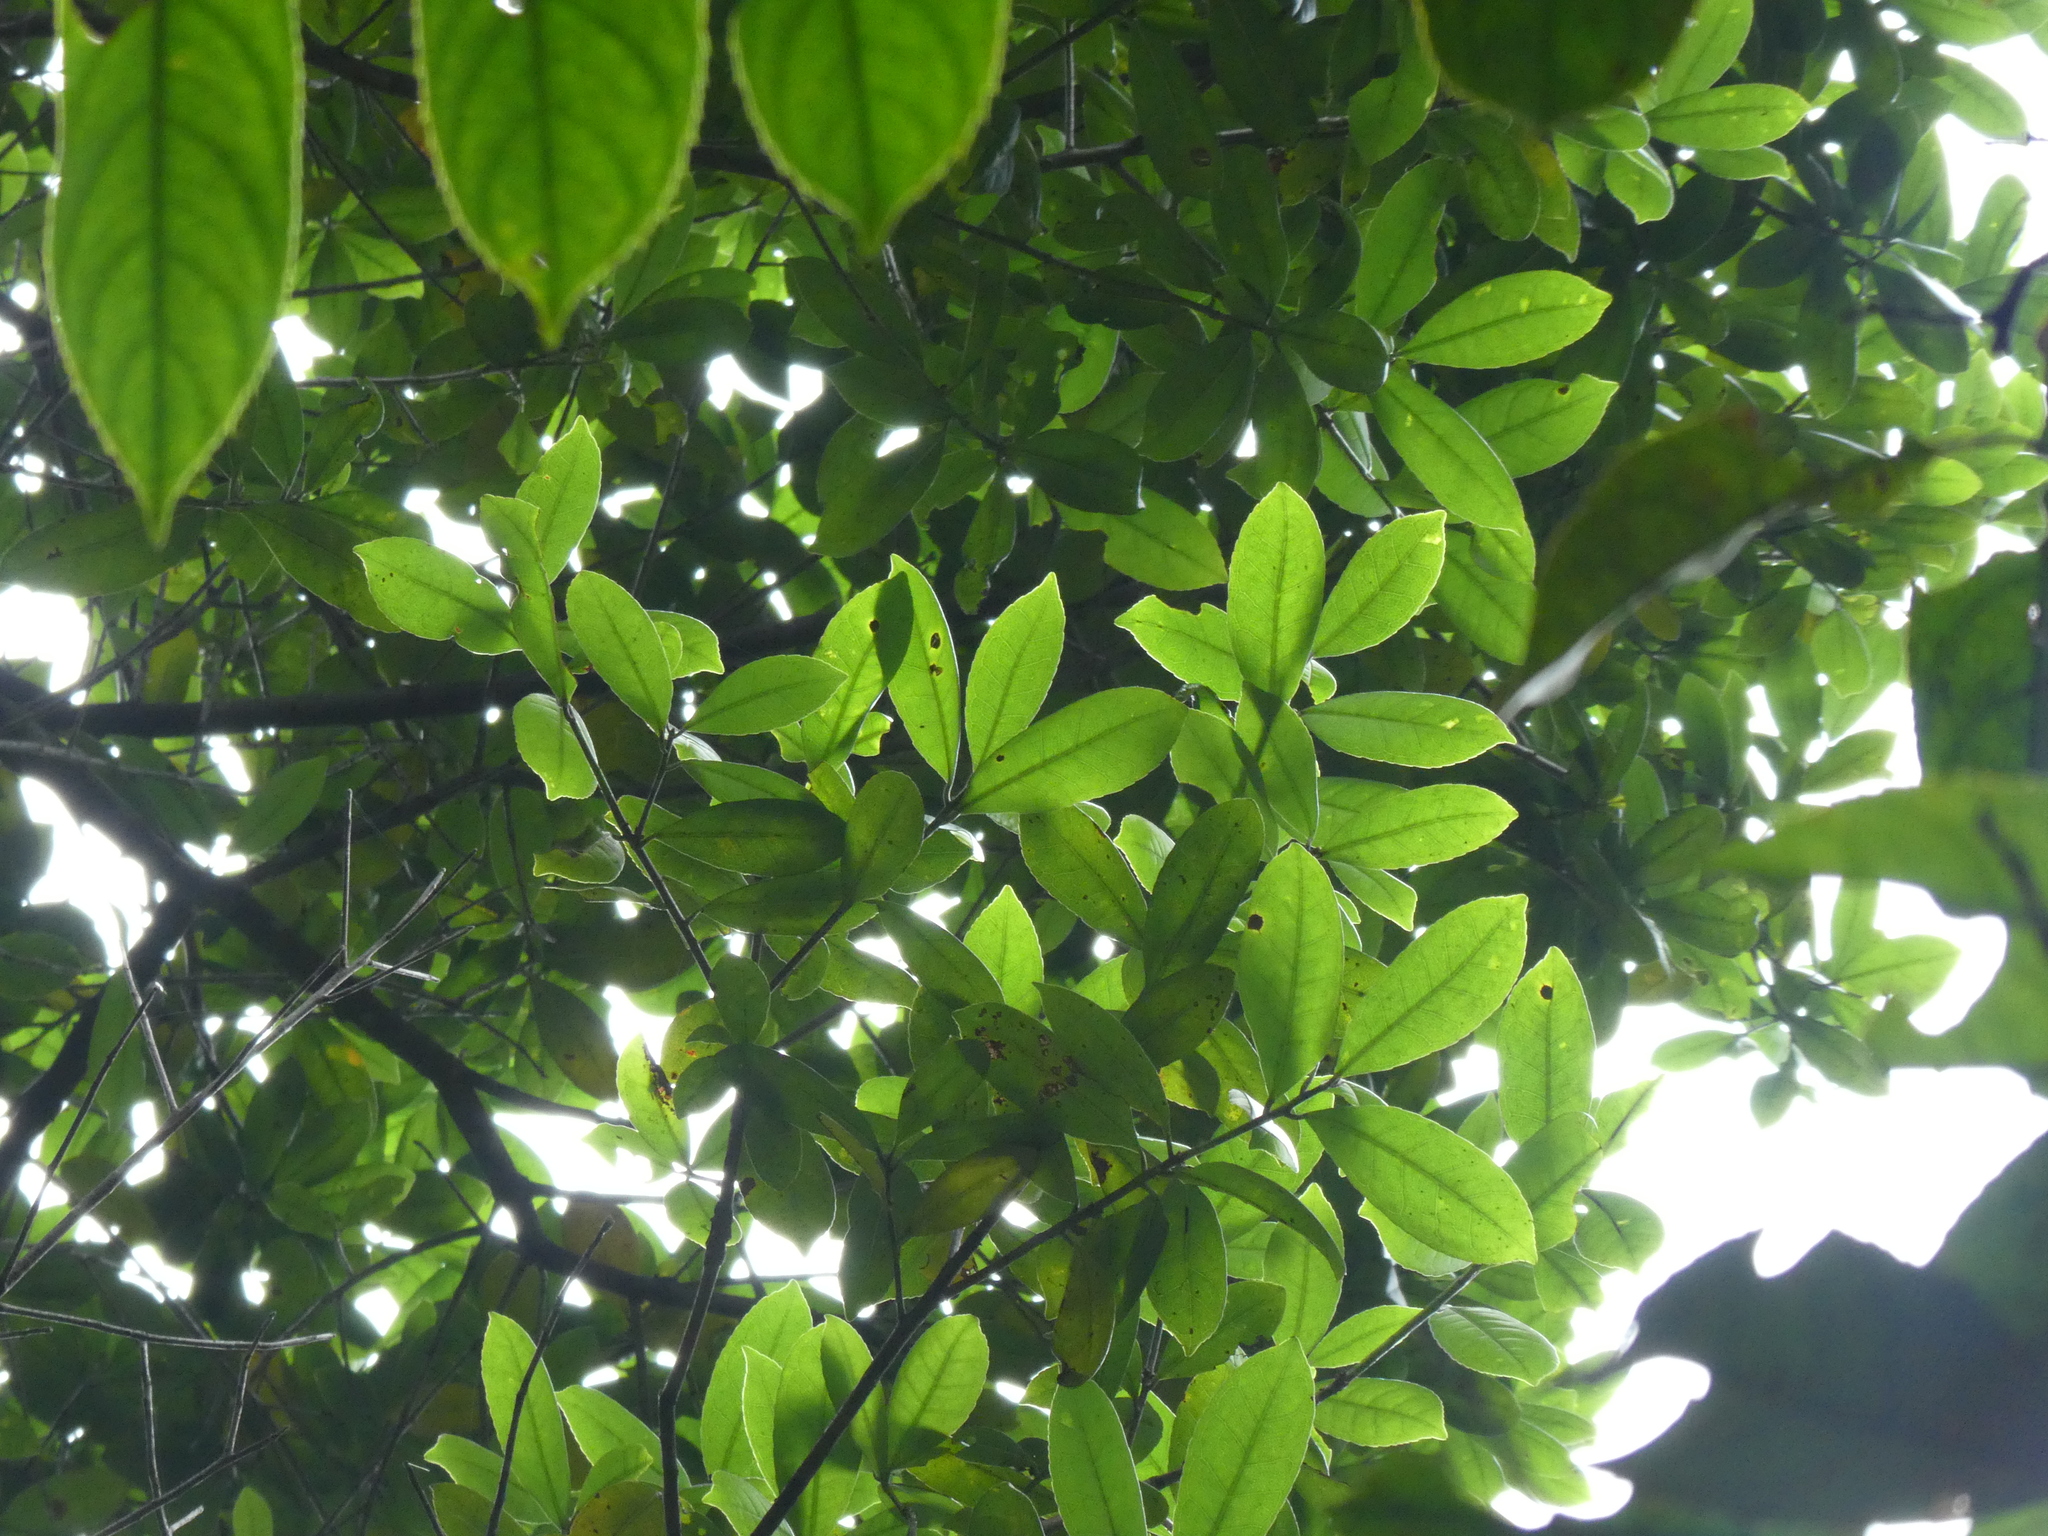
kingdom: Plantae
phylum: Tracheophyta
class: Magnoliopsida
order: Saxifragales
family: Altingiaceae
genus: Liquidambar
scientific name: Liquidambar chinensis
